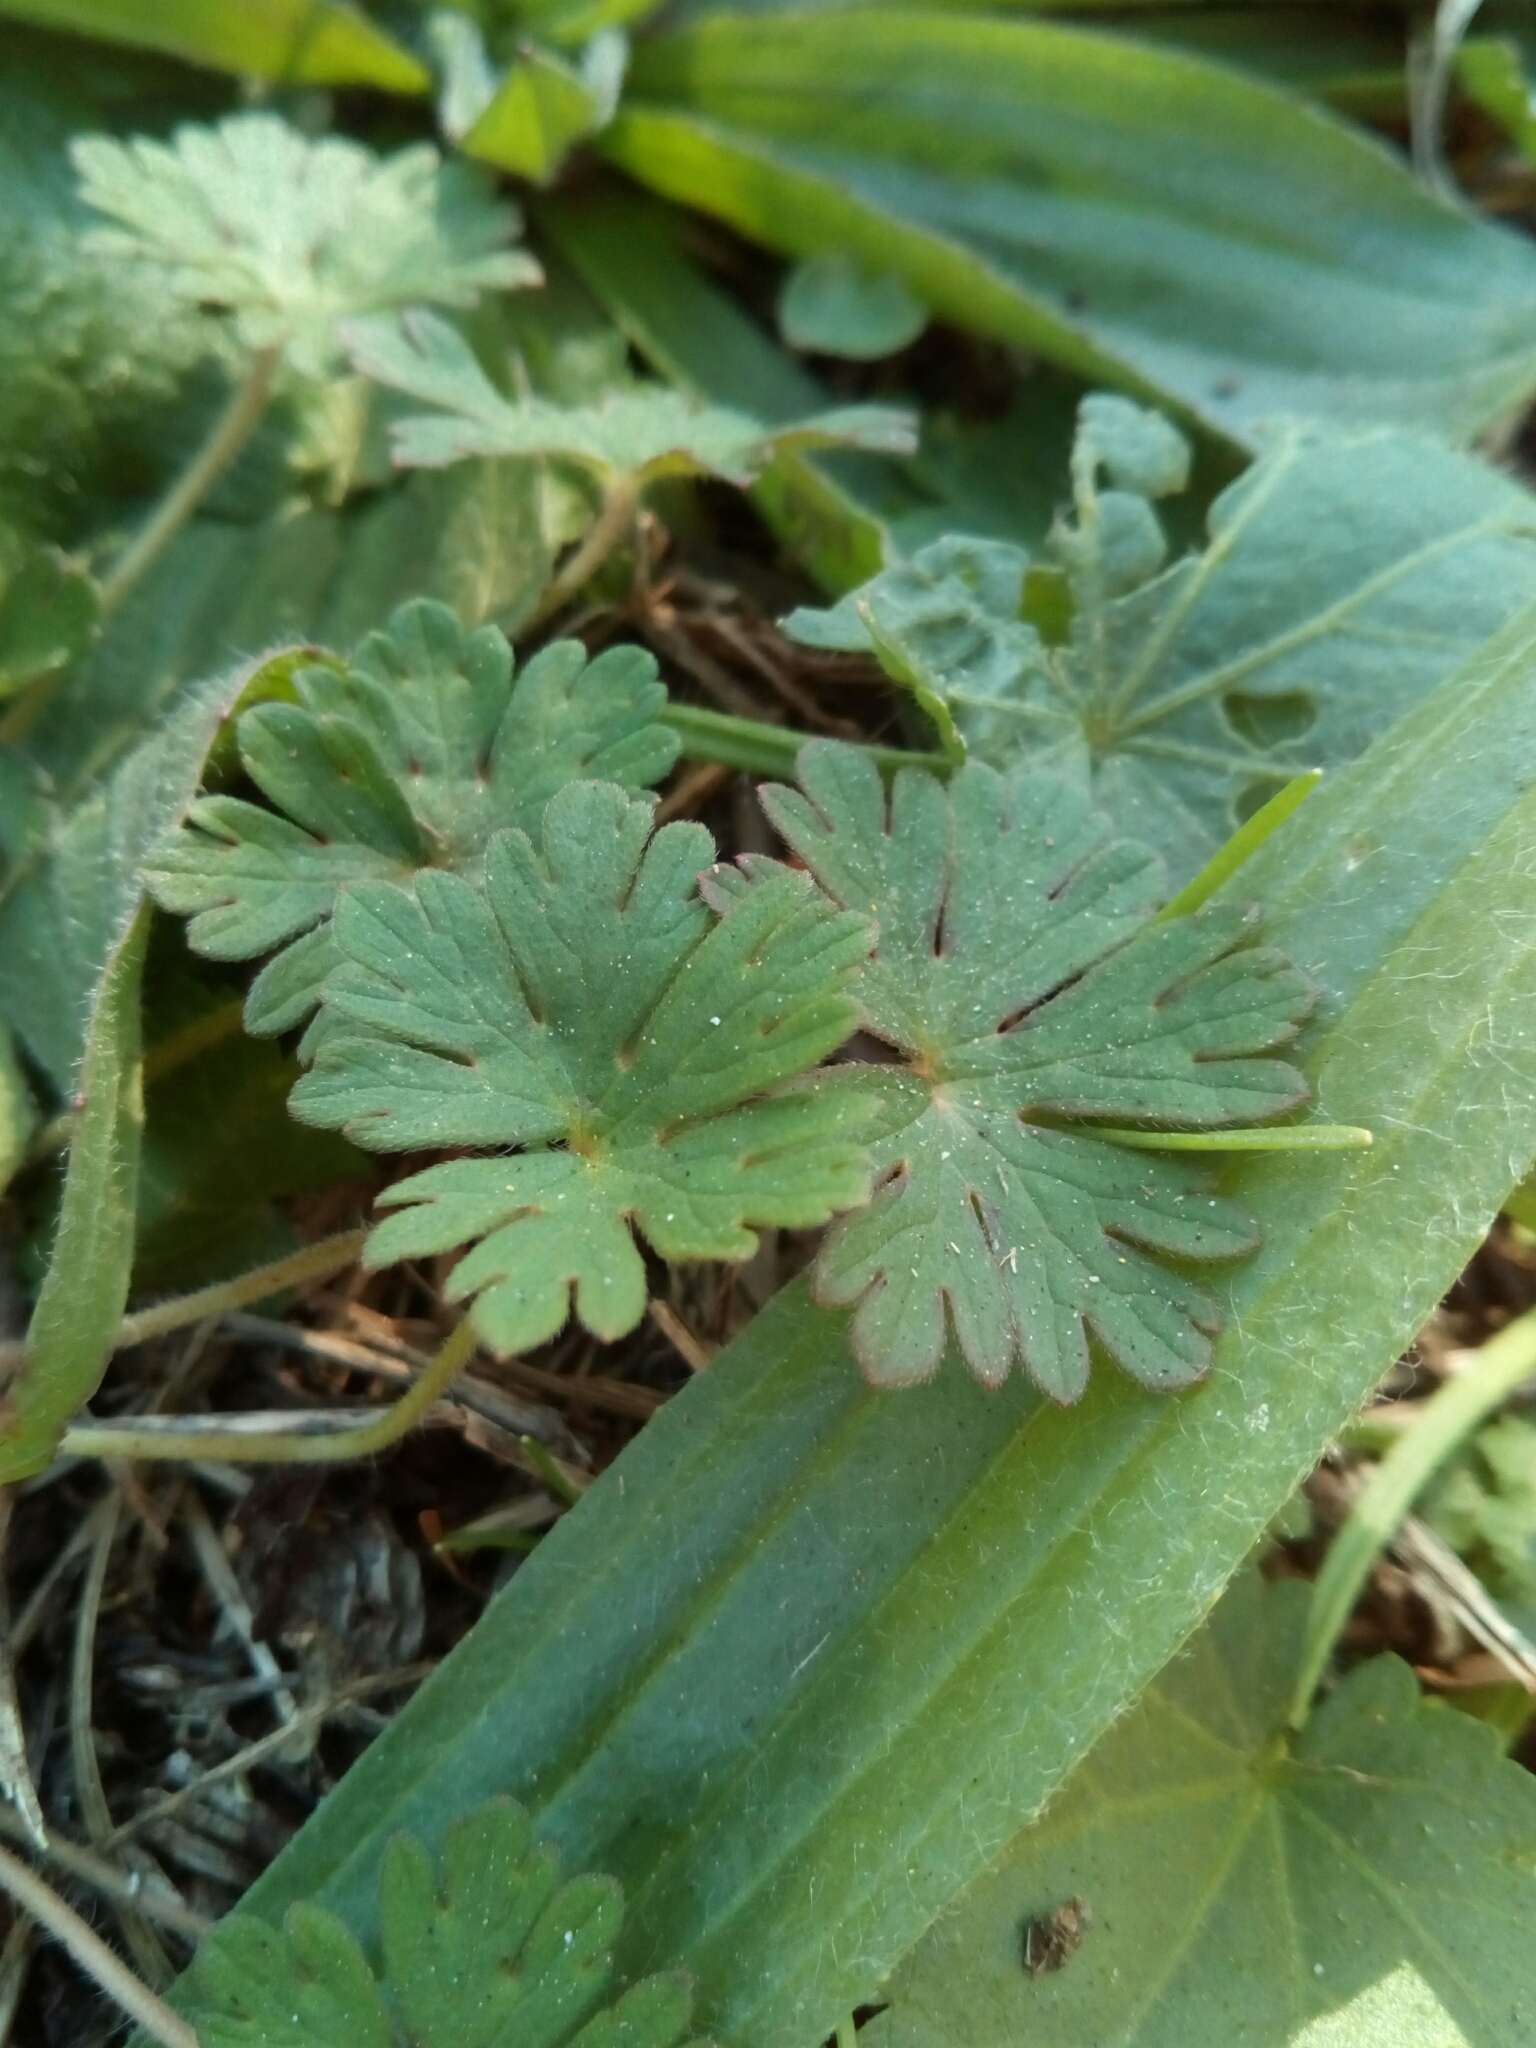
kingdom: Plantae
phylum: Tracheophyta
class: Magnoliopsida
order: Geraniales
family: Geraniaceae
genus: Geranium
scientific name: Geranium carolinianum
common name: Carolina crane's-bill
